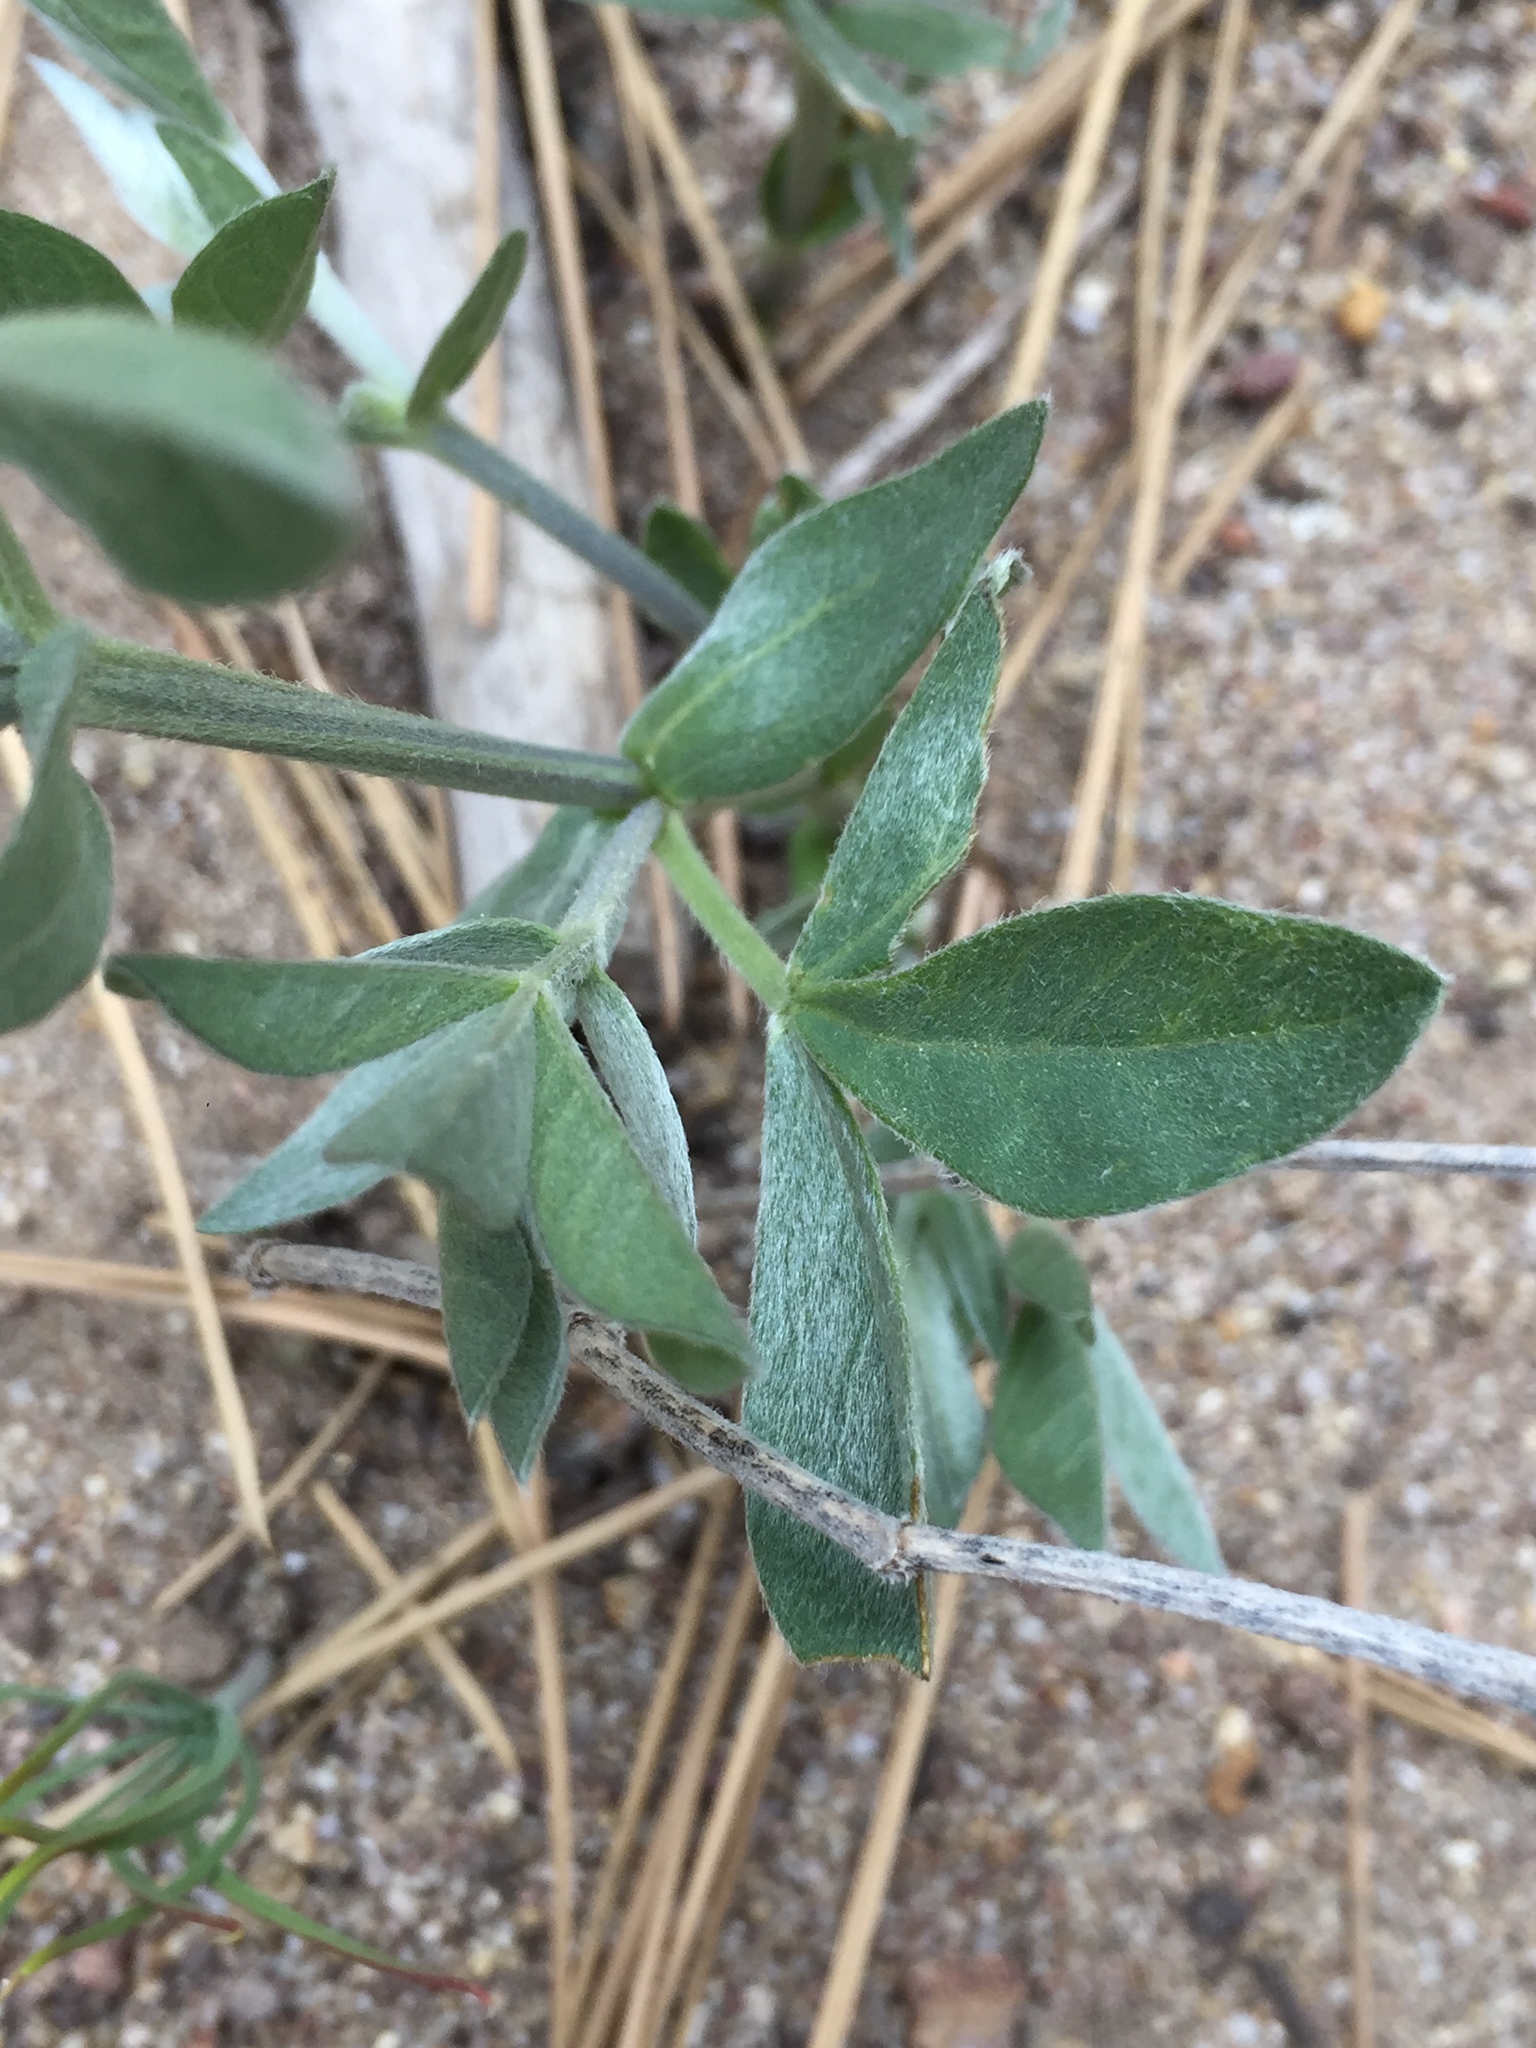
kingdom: Plantae
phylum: Tracheophyta
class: Magnoliopsida
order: Fabales
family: Fabaceae
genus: Thermopsis
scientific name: Thermopsis californica
